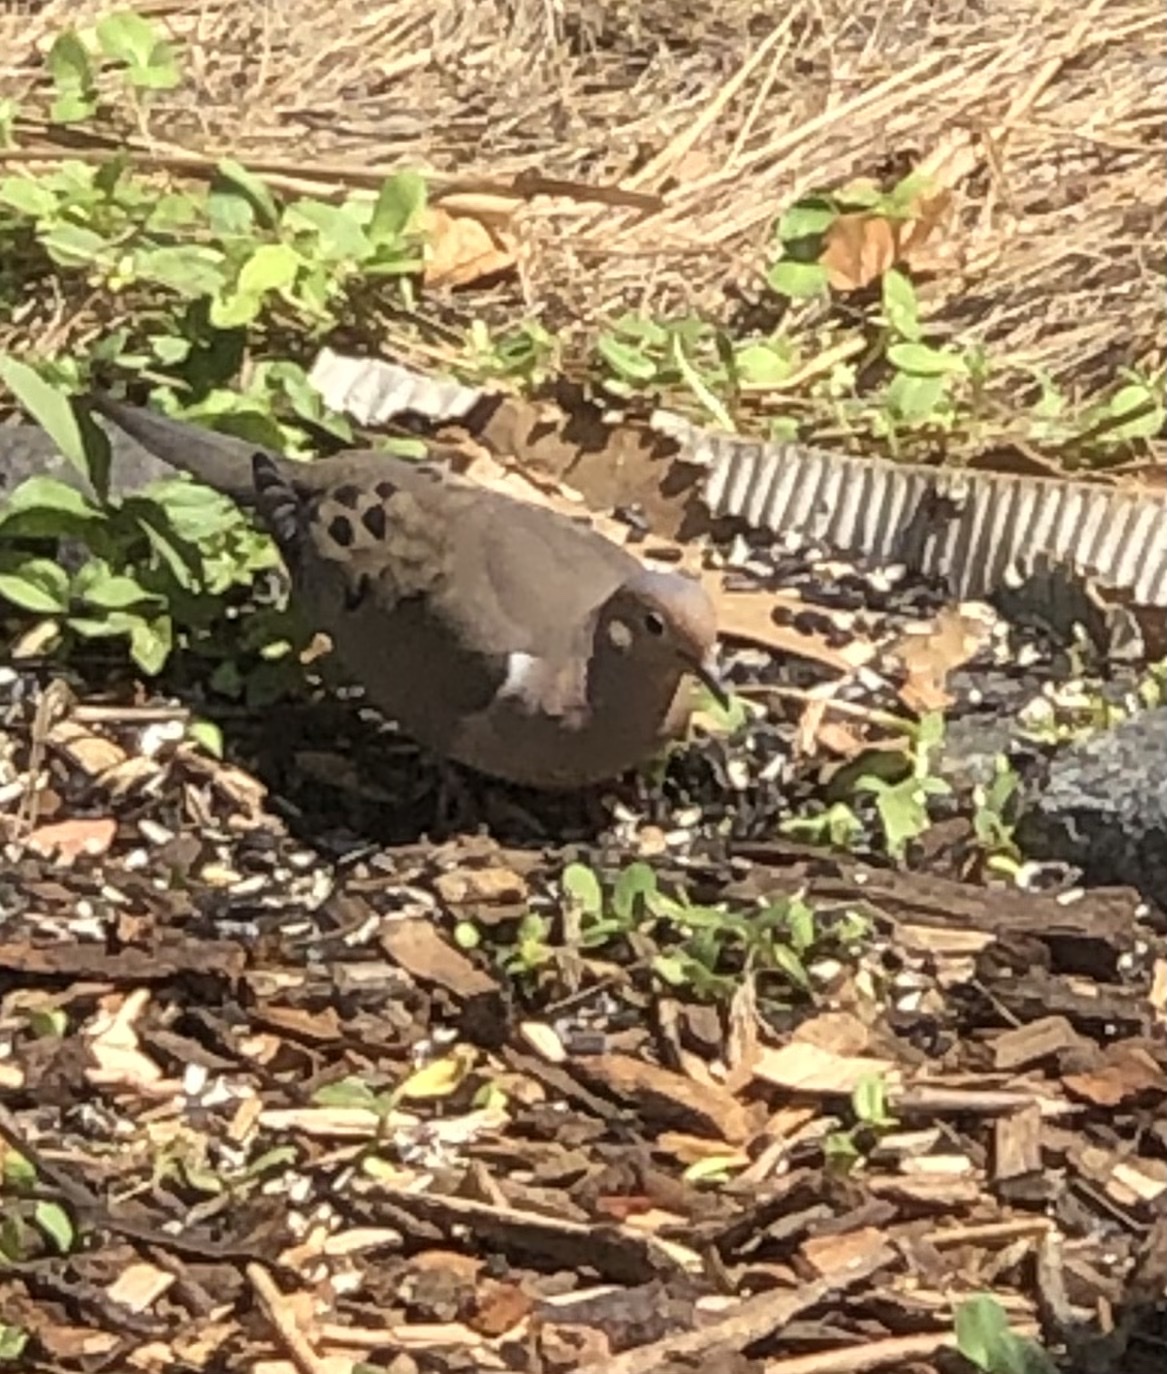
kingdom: Animalia
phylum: Chordata
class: Aves
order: Columbiformes
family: Columbidae
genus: Zenaida
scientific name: Zenaida macroura
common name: Mourning dove
